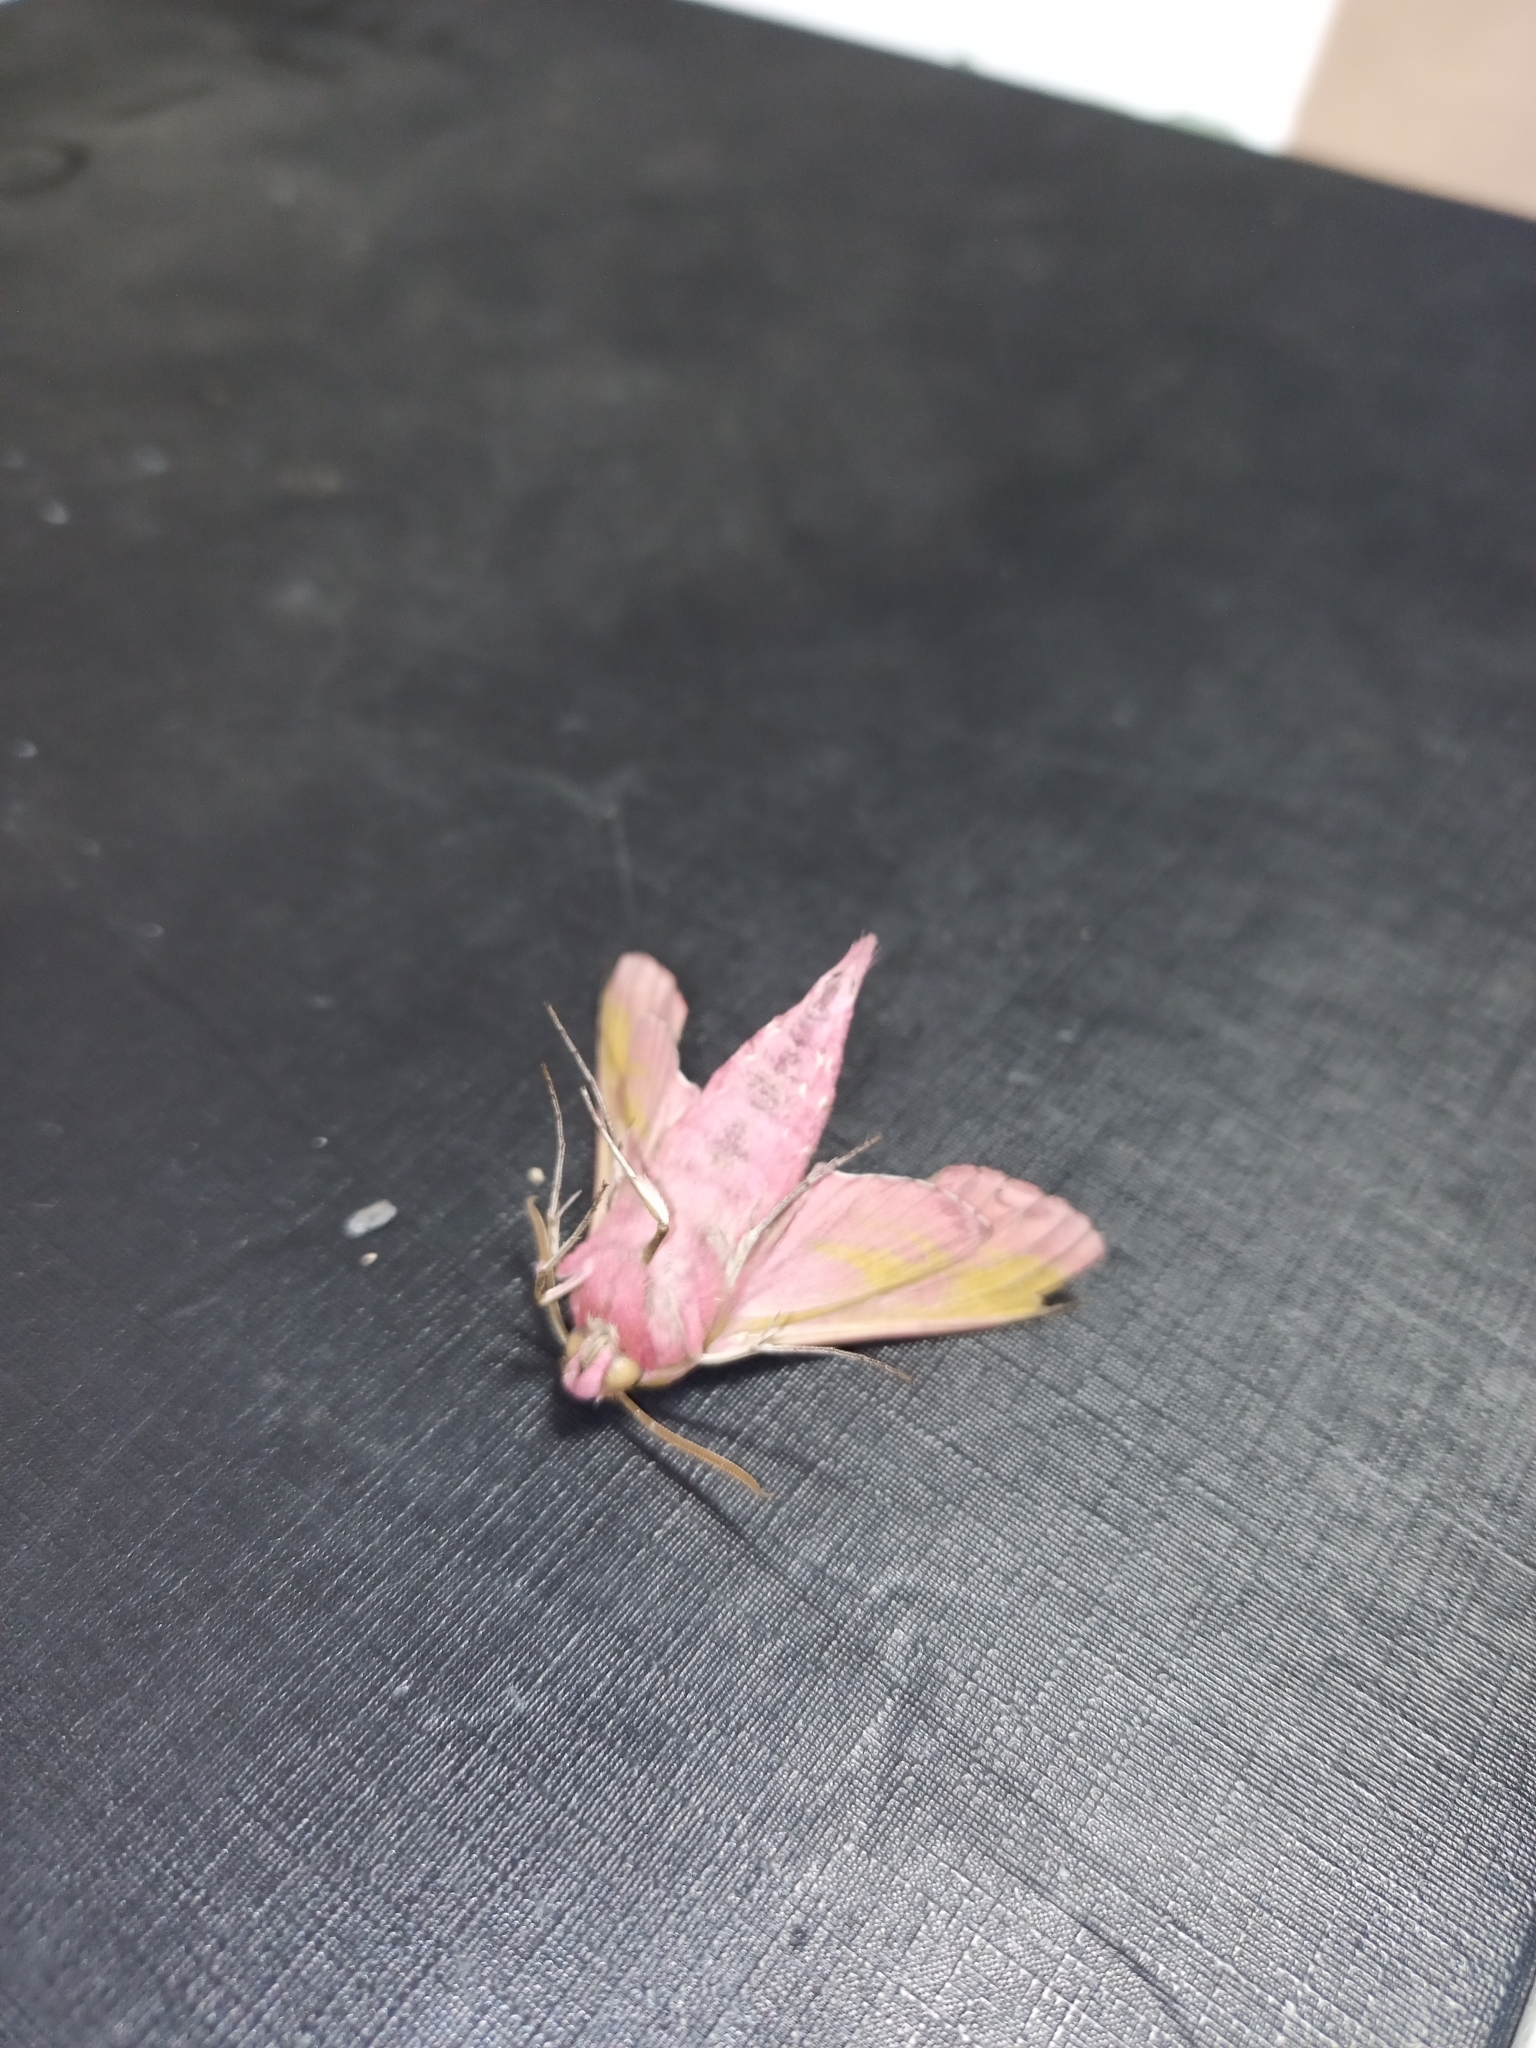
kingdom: Animalia
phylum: Arthropoda
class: Insecta
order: Lepidoptera
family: Sphingidae
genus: Deilephila
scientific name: Deilephila elpenor
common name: Elephant hawk-moth
